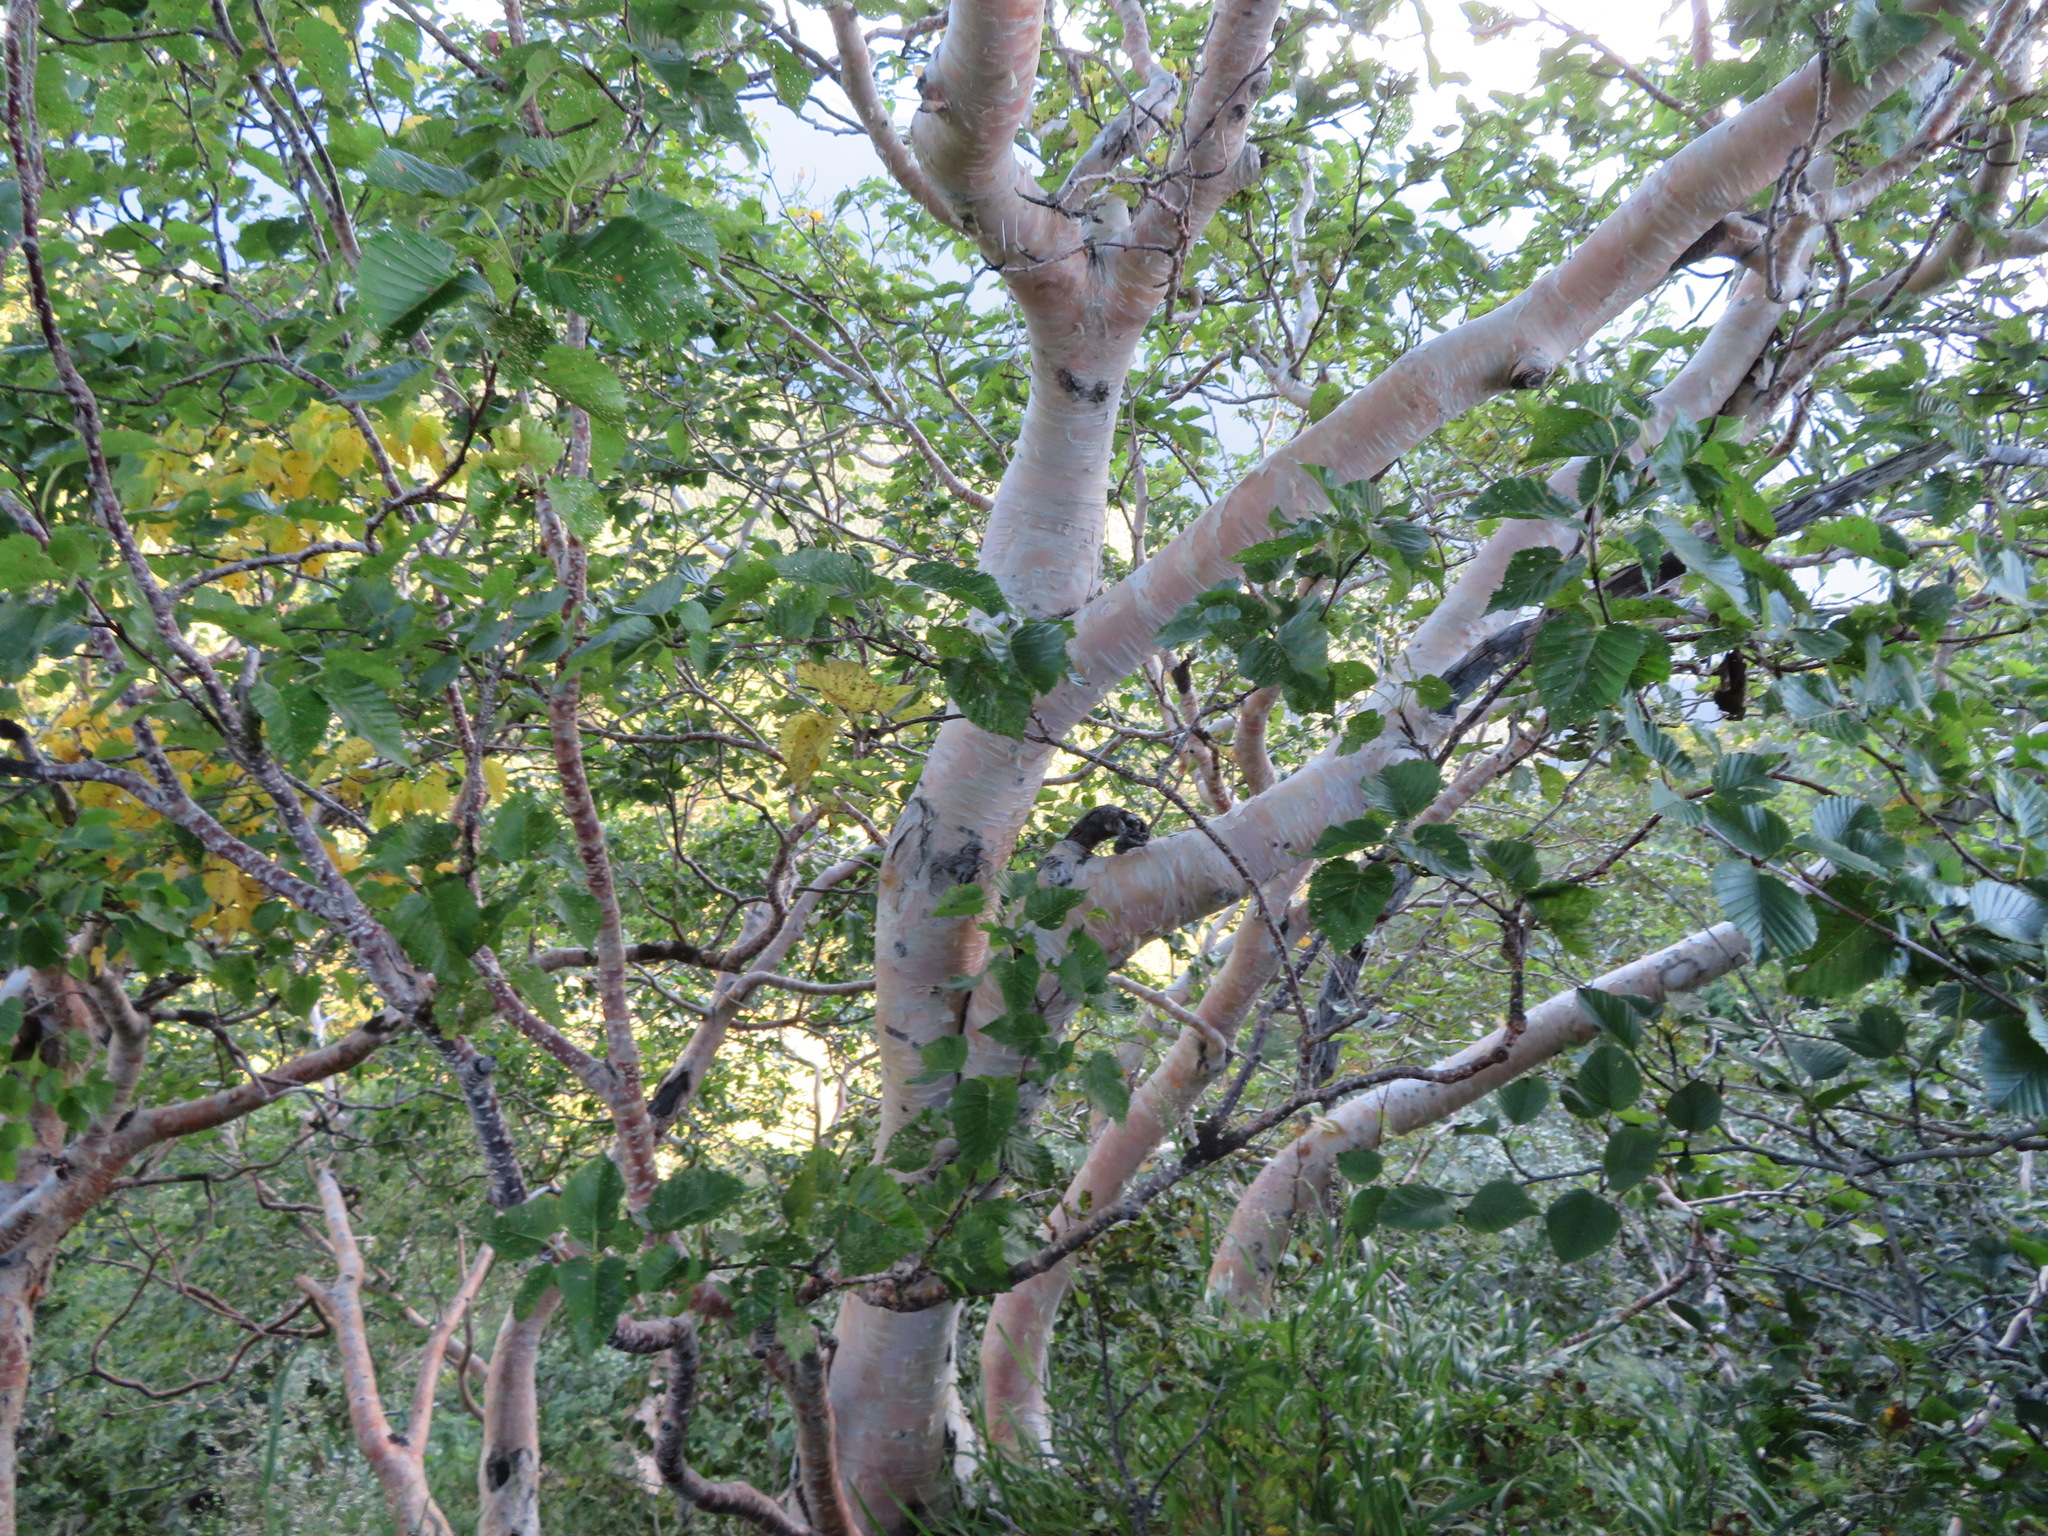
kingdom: Plantae
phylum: Tracheophyta
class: Magnoliopsida
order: Fagales
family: Betulaceae
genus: Betula
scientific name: Betula ermanii
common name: Erman's birch
